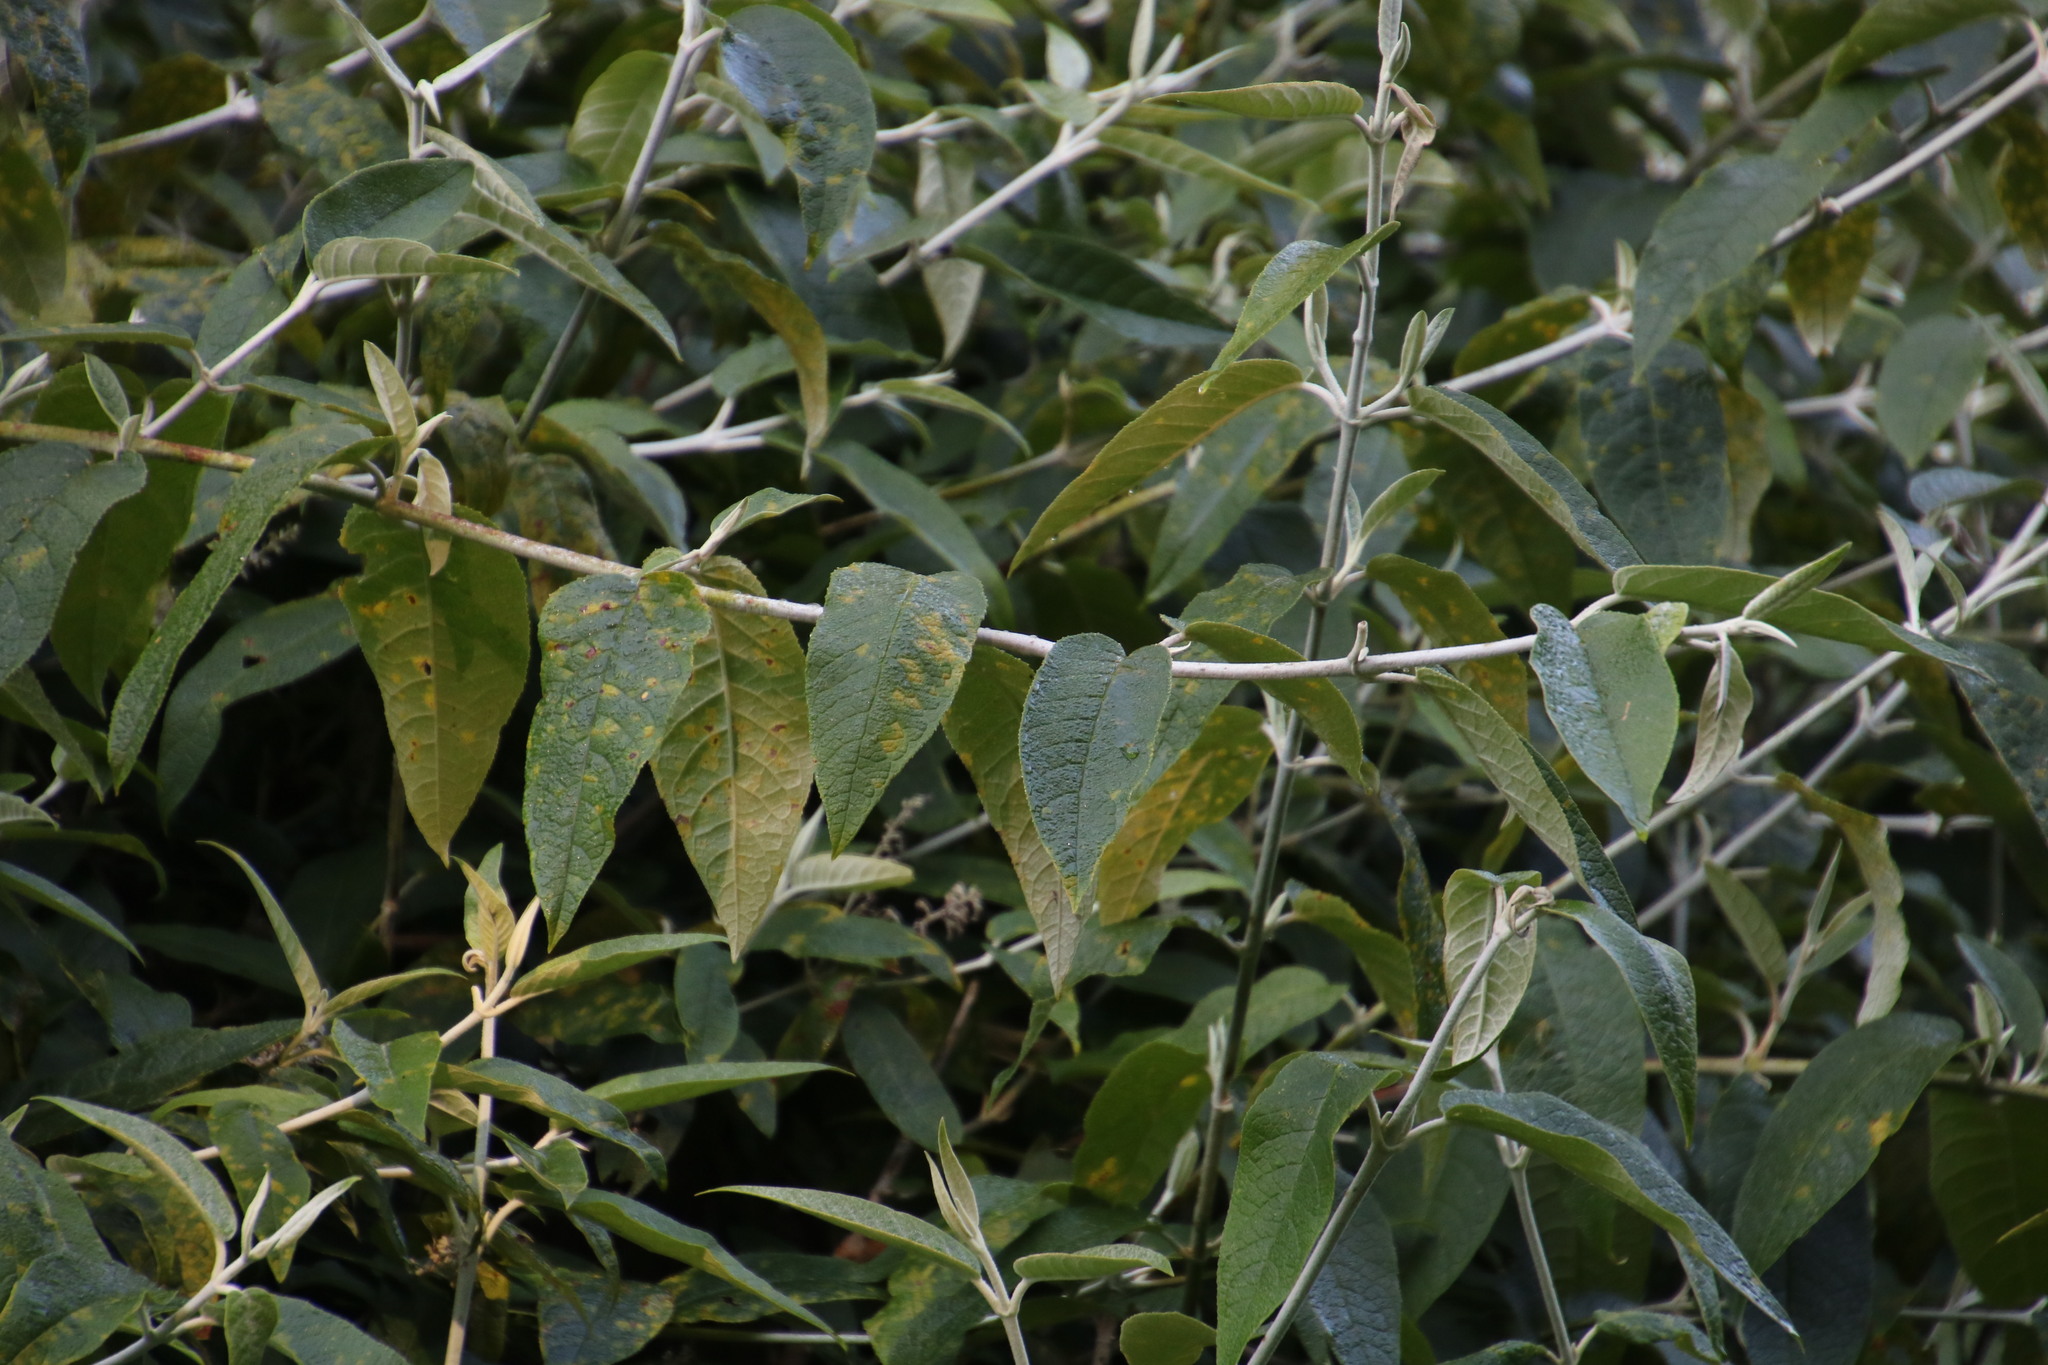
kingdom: Plantae
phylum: Tracheophyta
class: Magnoliopsida
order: Lamiales
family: Scrophulariaceae
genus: Buddleja
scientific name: Buddleja madagascariensis
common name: Smokebush
